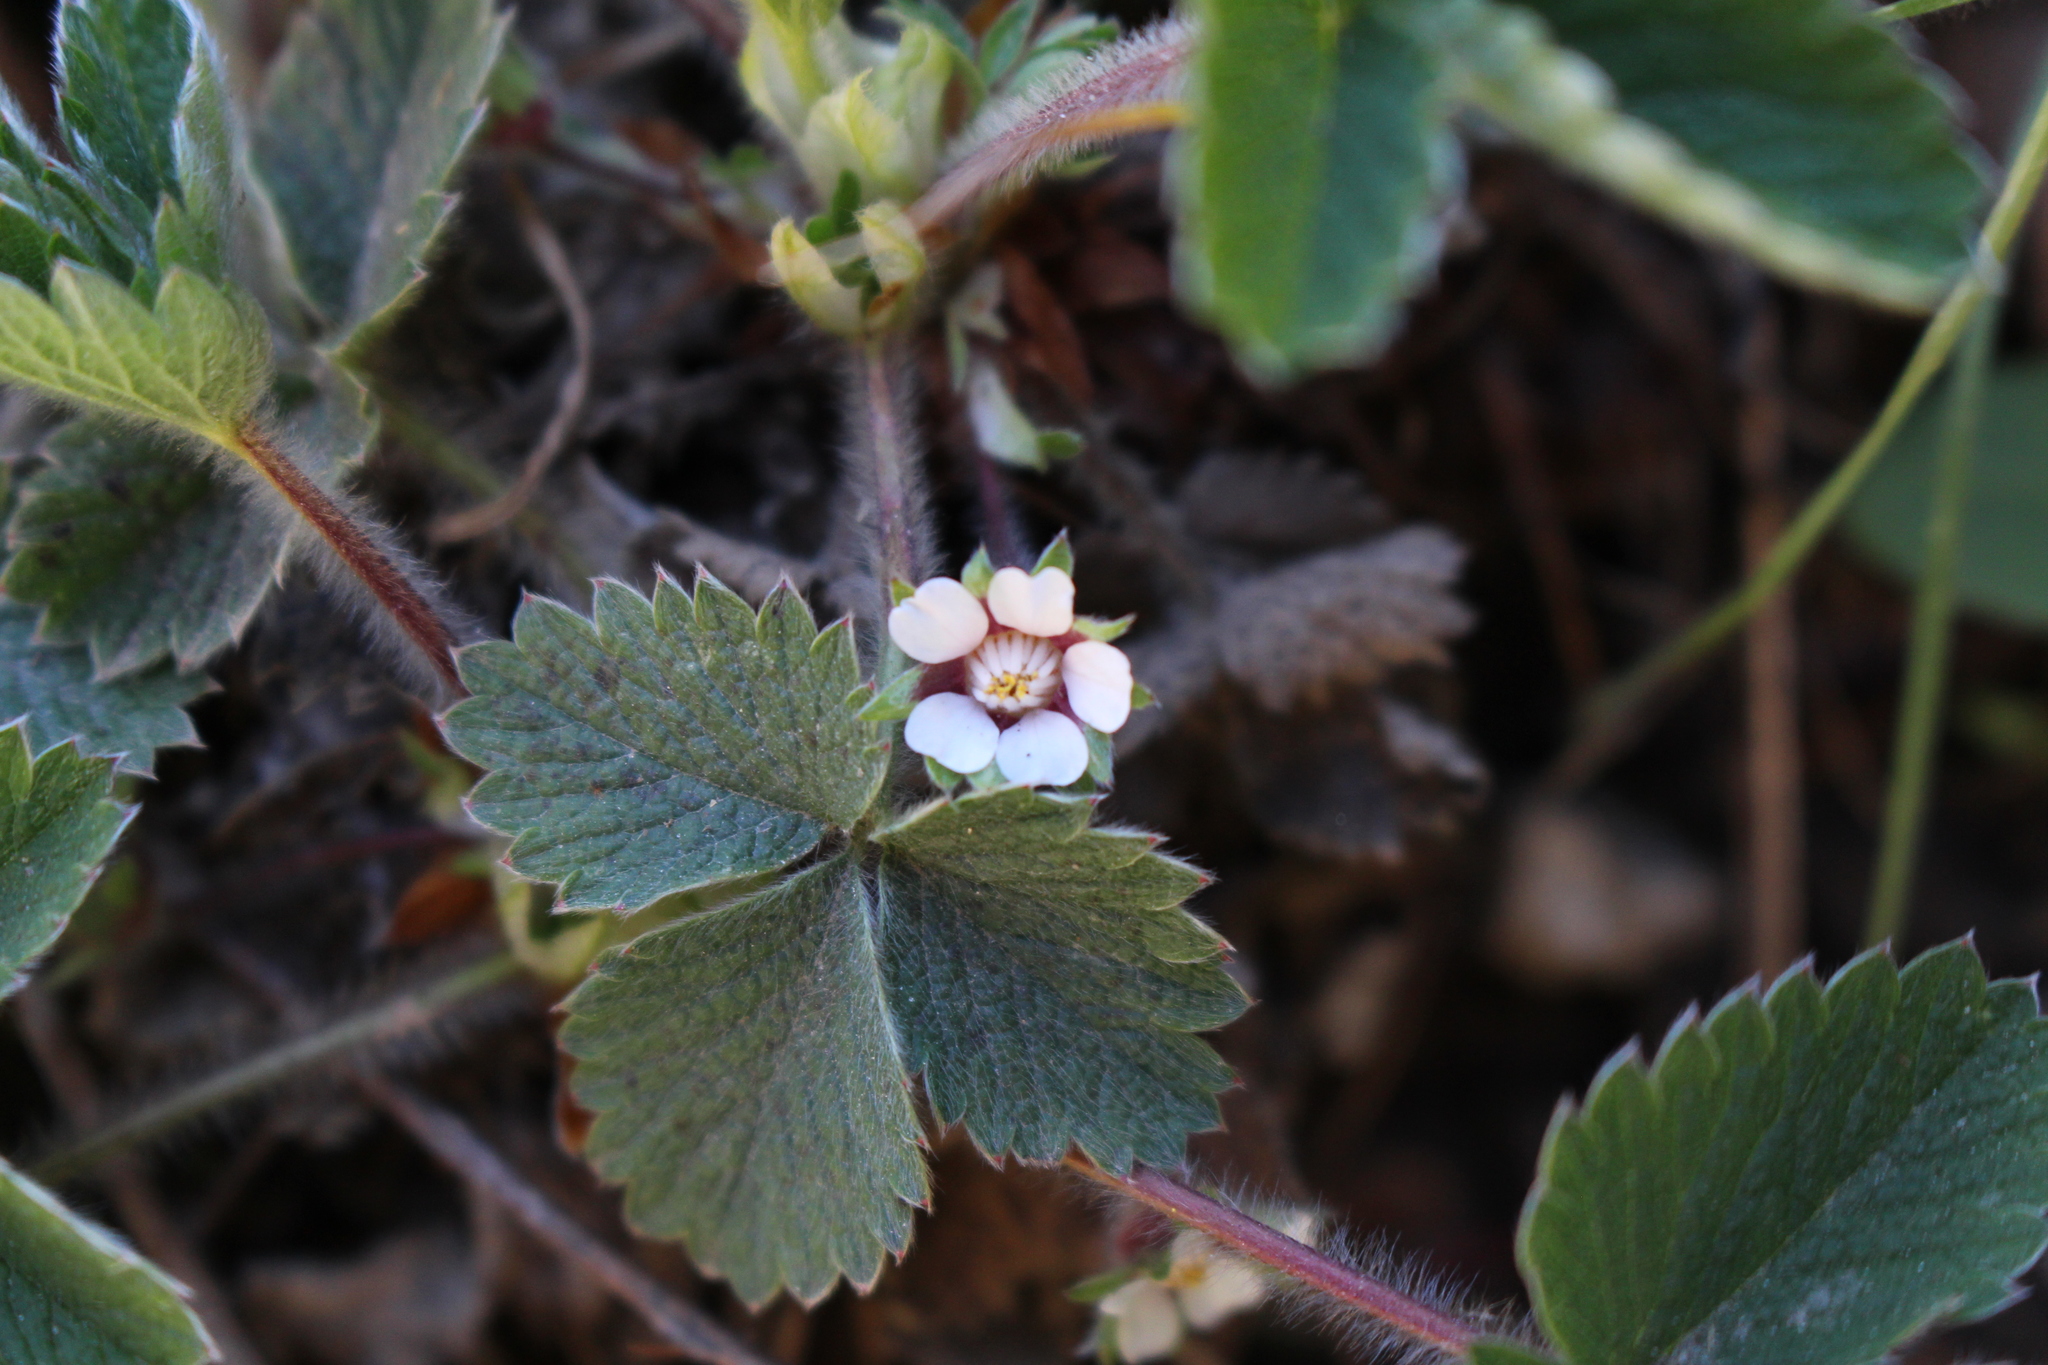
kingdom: Plantae
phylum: Tracheophyta
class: Magnoliopsida
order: Rosales
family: Rosaceae
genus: Potentilla
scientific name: Potentilla sterilis
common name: Barren strawberry
